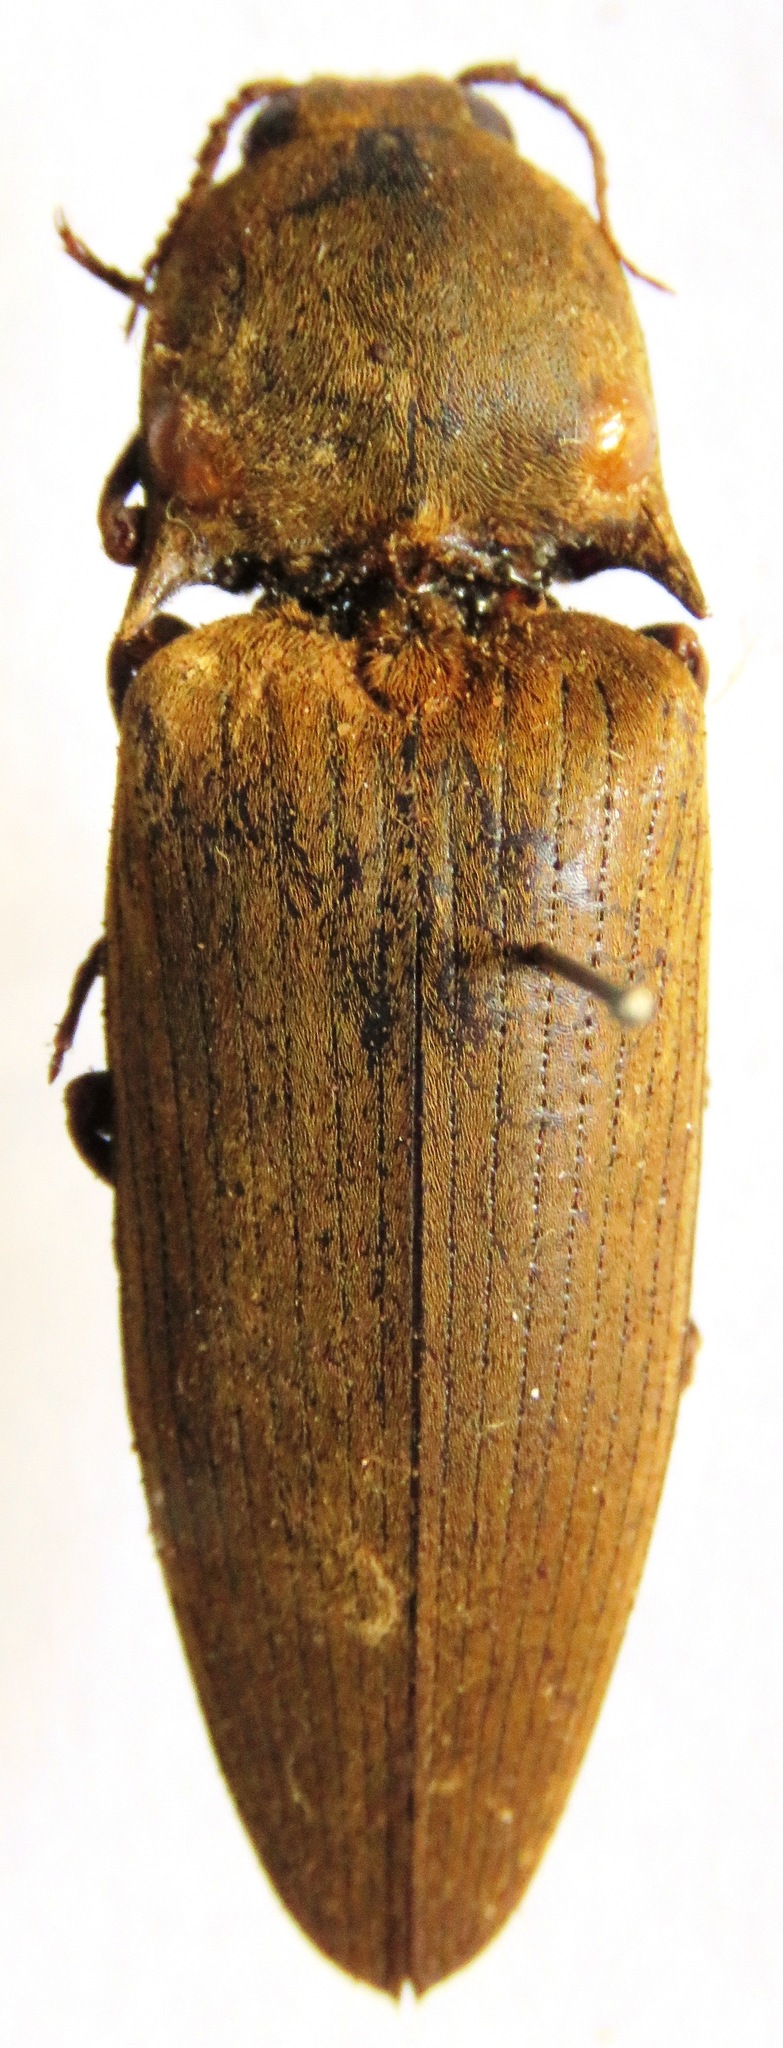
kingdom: Animalia
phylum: Arthropoda
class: Insecta
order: Coleoptera
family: Elateridae
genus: Pyrophorus
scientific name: Pyrophorus
